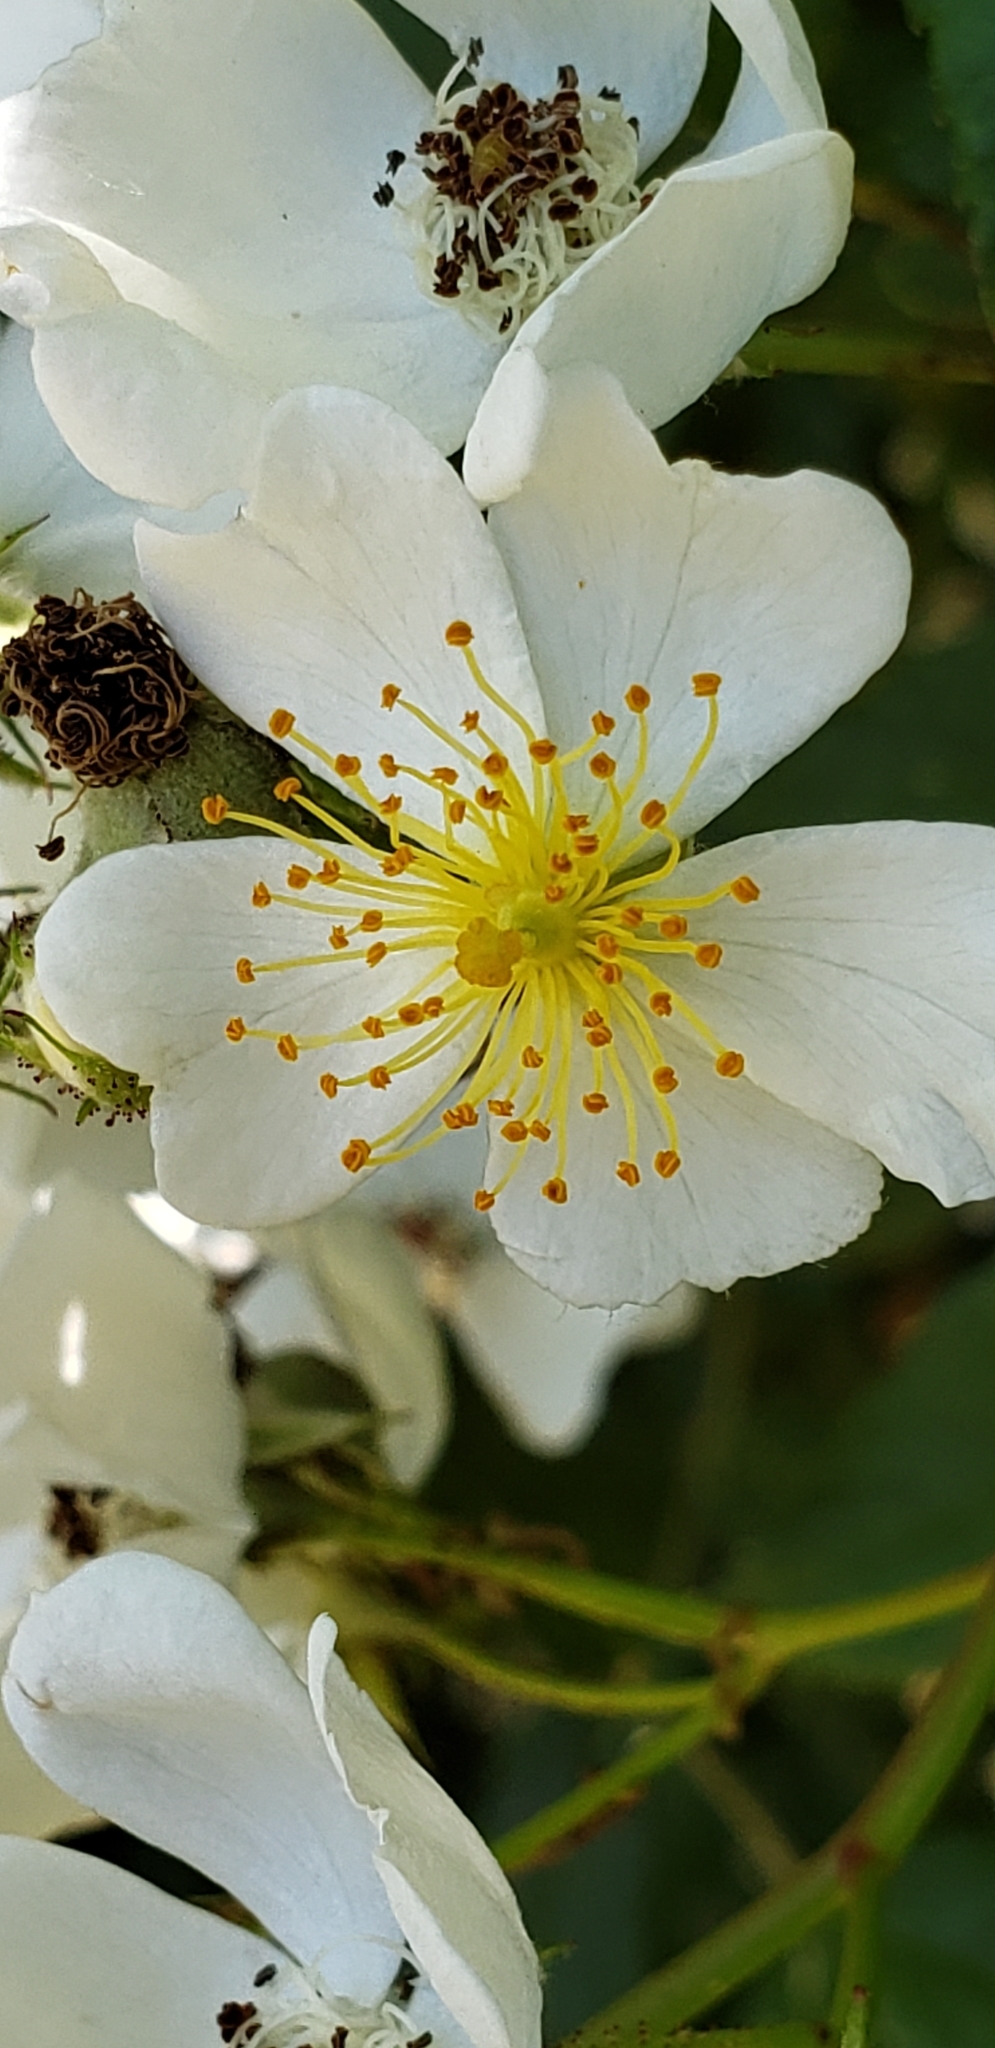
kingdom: Plantae
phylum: Tracheophyta
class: Magnoliopsida
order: Rosales
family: Rosaceae
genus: Rosa
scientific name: Rosa multiflora
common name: Multiflora rose
